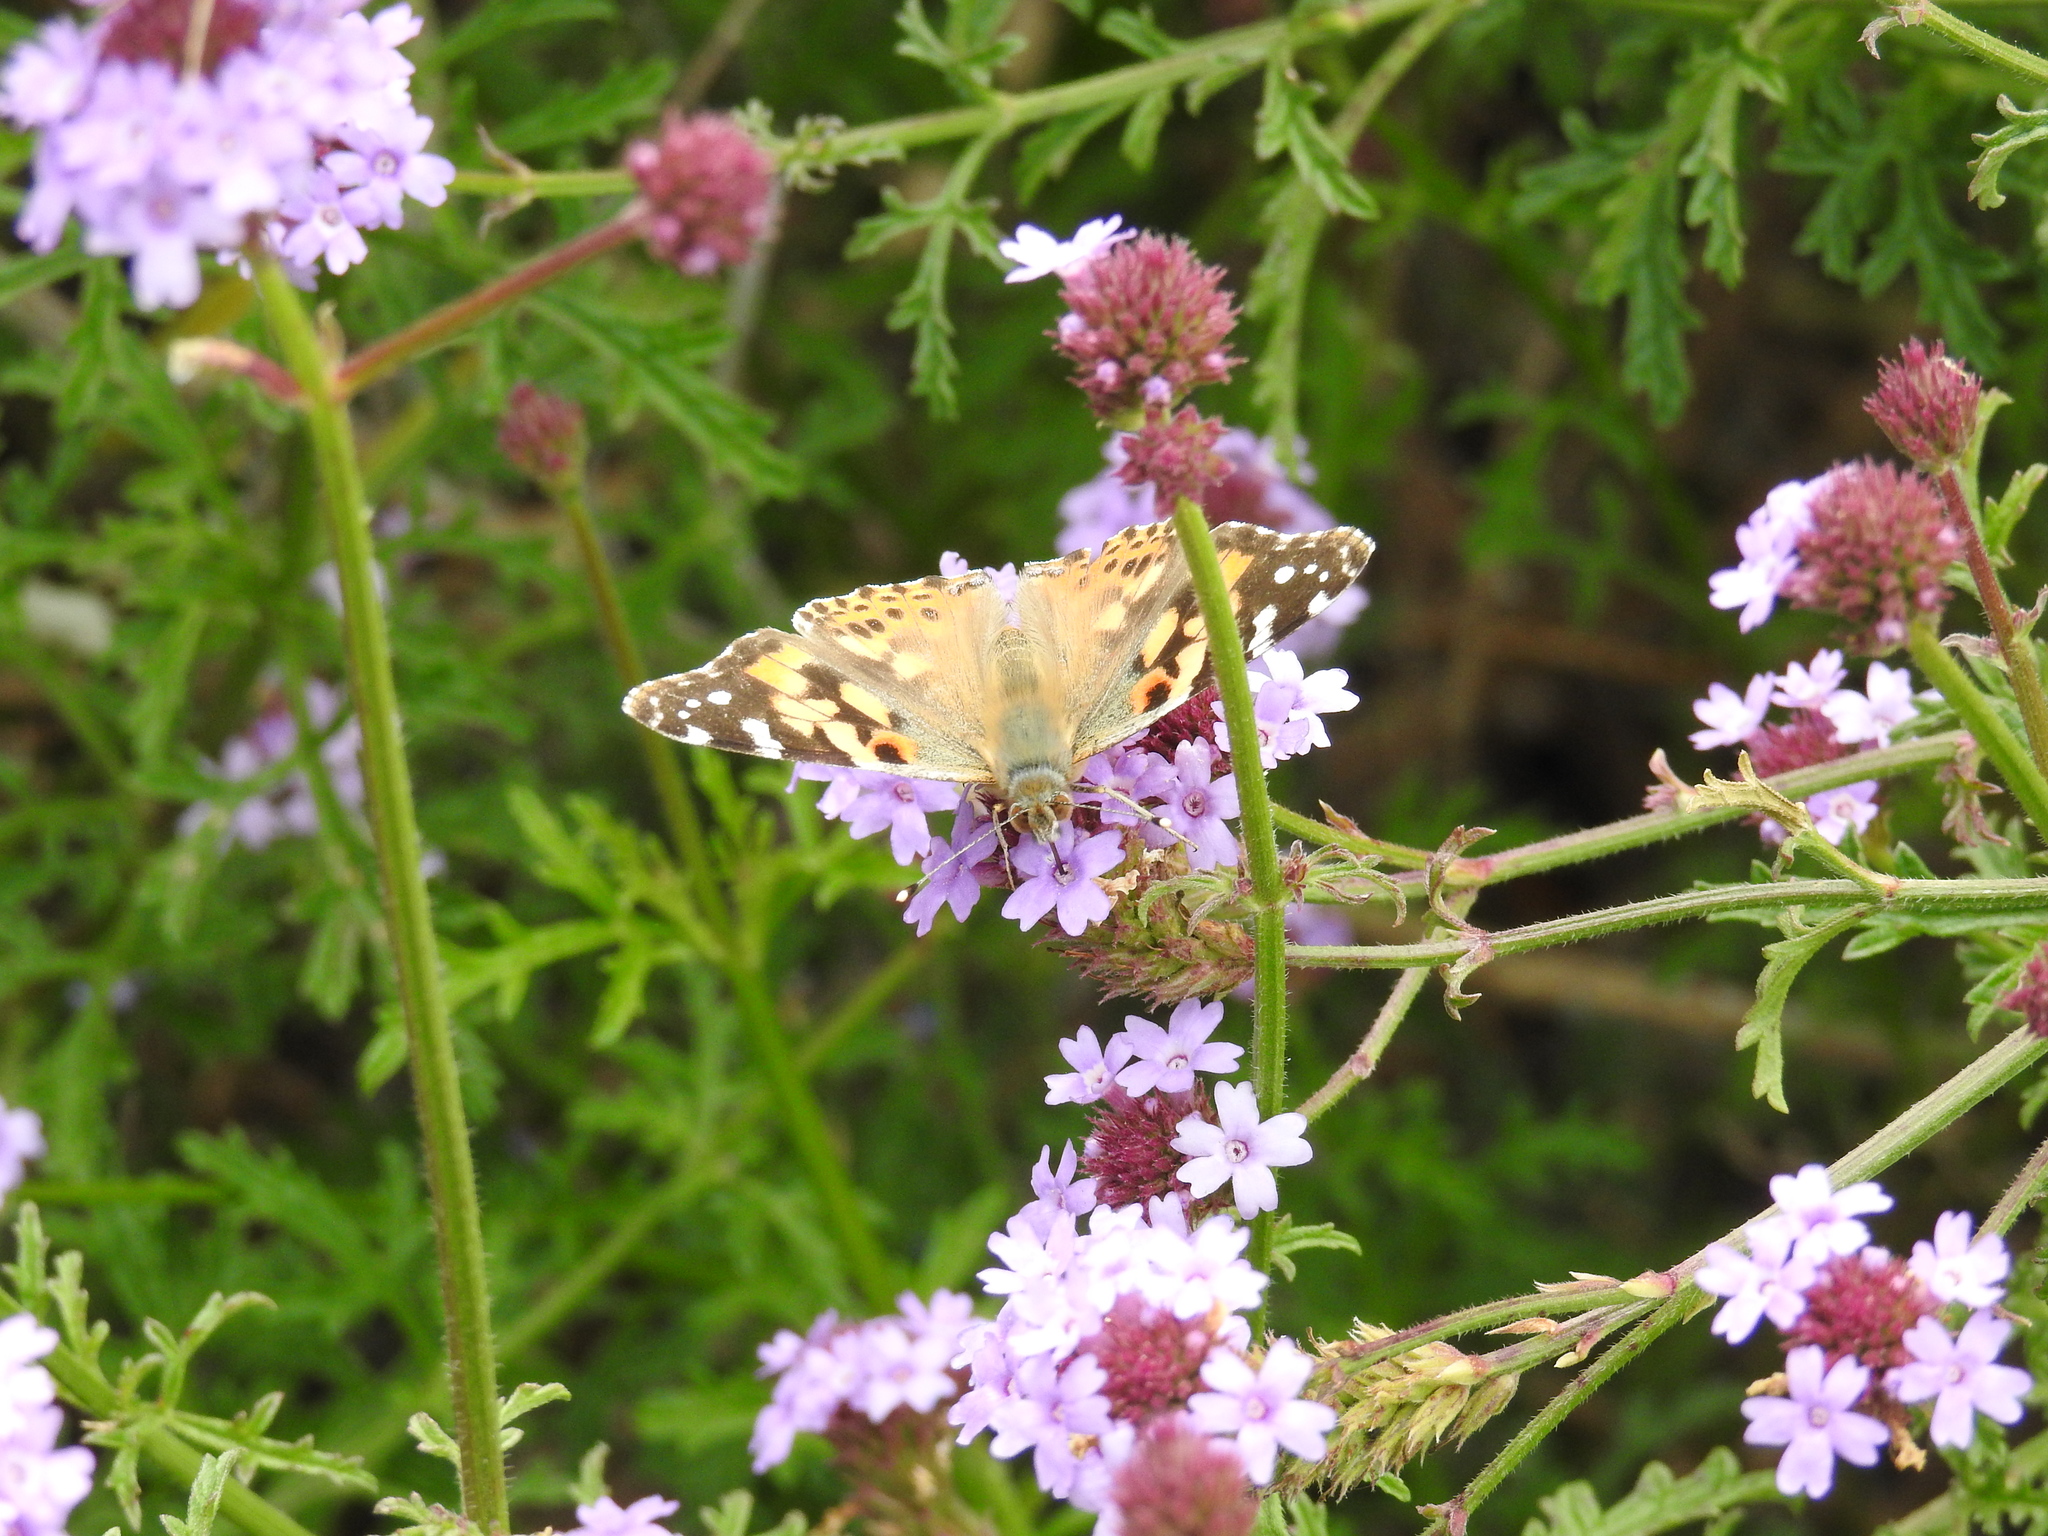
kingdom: Animalia
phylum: Arthropoda
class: Insecta
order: Lepidoptera
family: Nymphalidae
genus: Vanessa
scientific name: Vanessa cardui
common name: Painted lady
